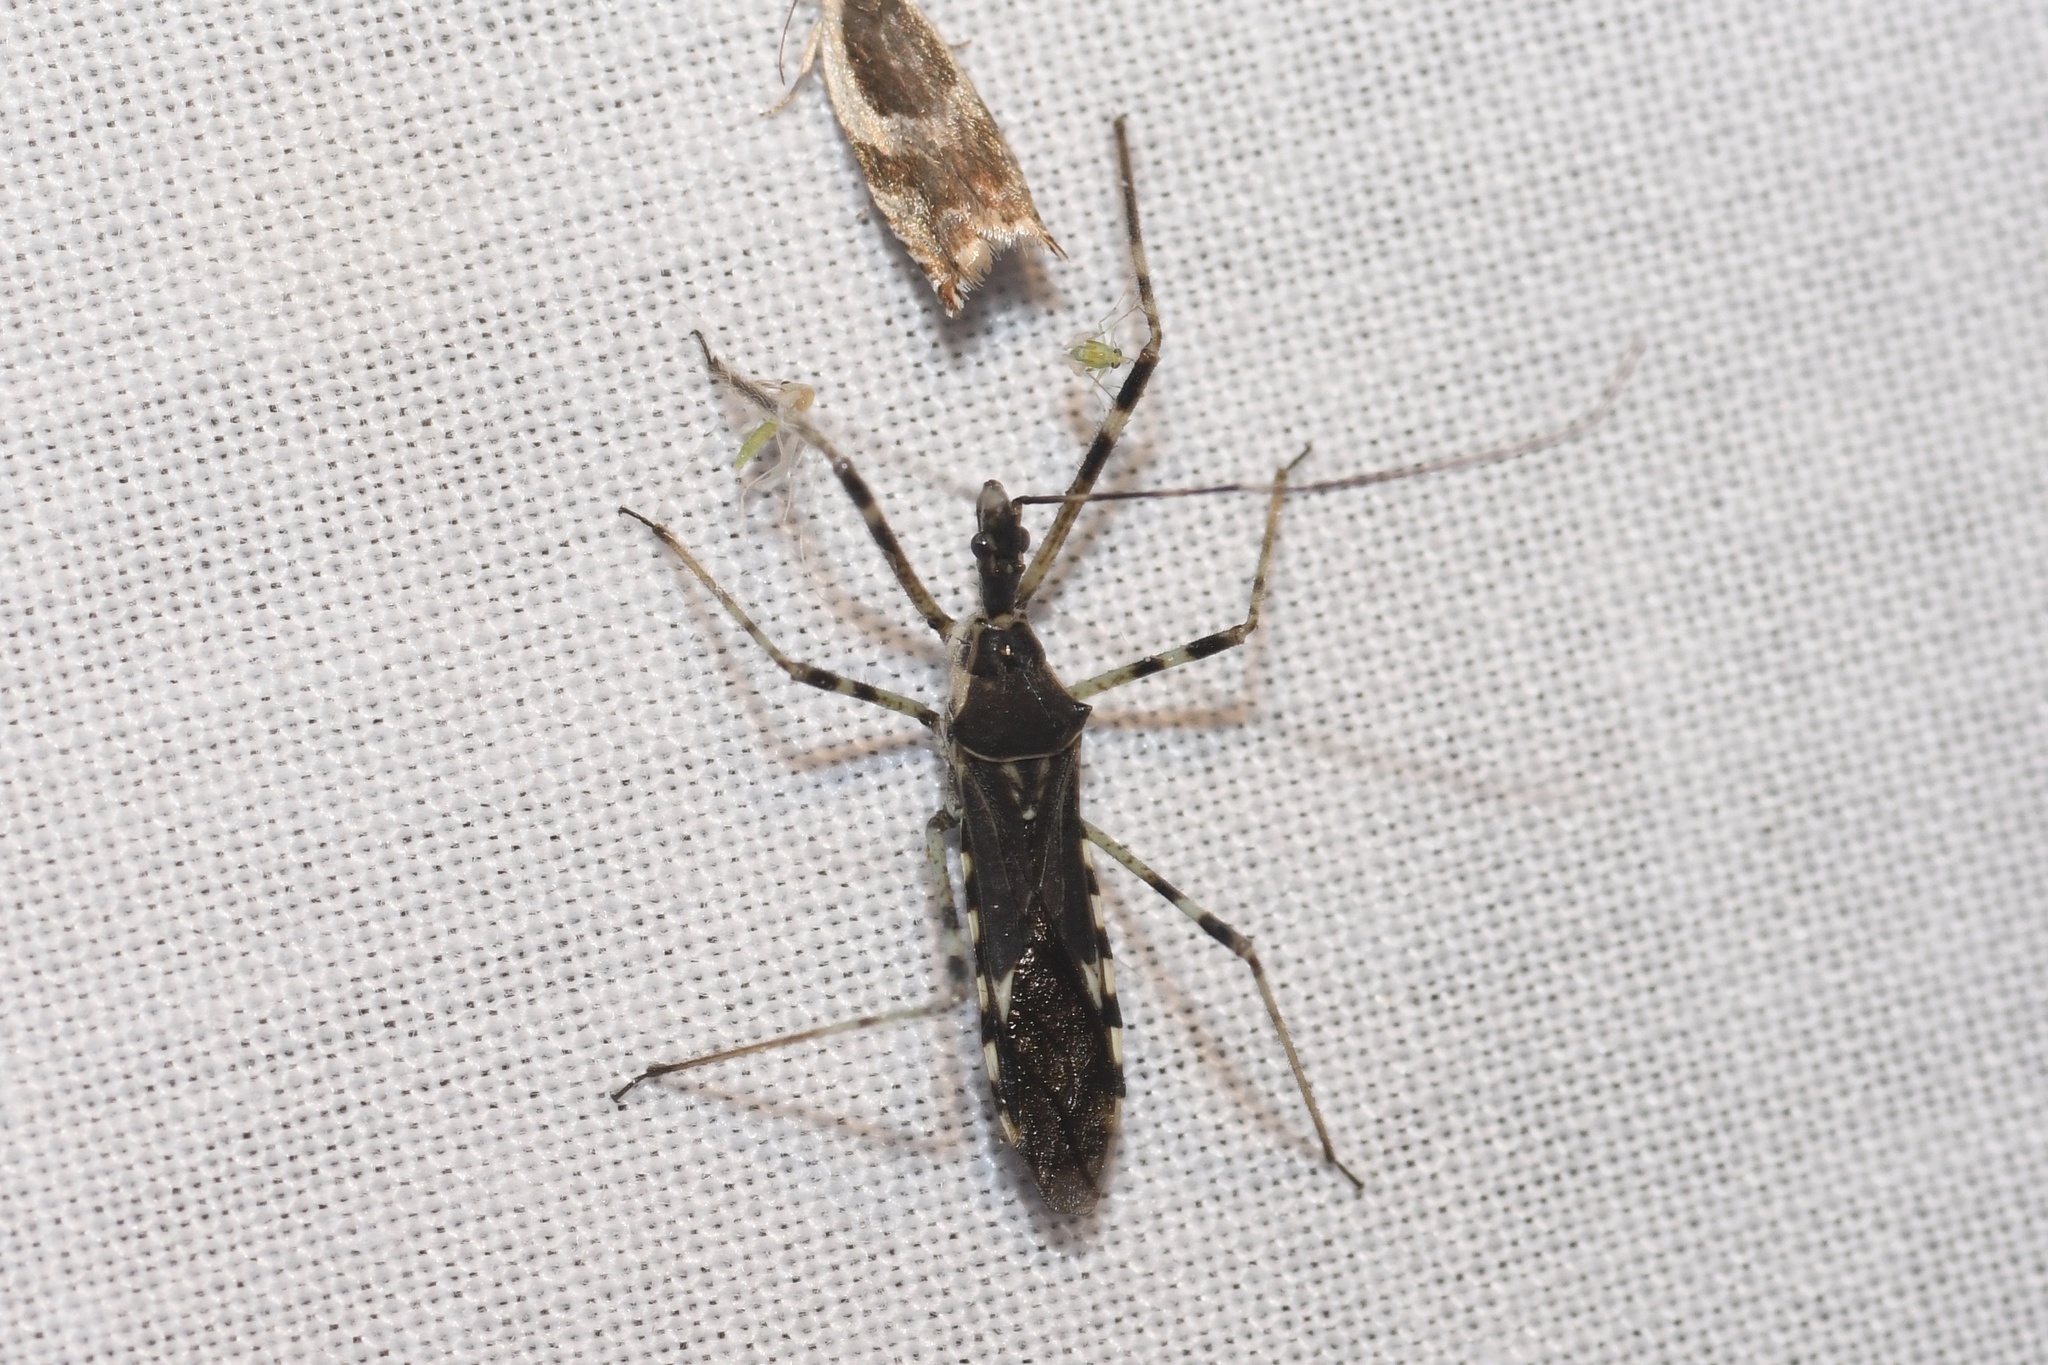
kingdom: Animalia
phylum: Arthropoda
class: Insecta
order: Hemiptera
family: Reduviidae
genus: Zelus
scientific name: Zelus tetracanthus
